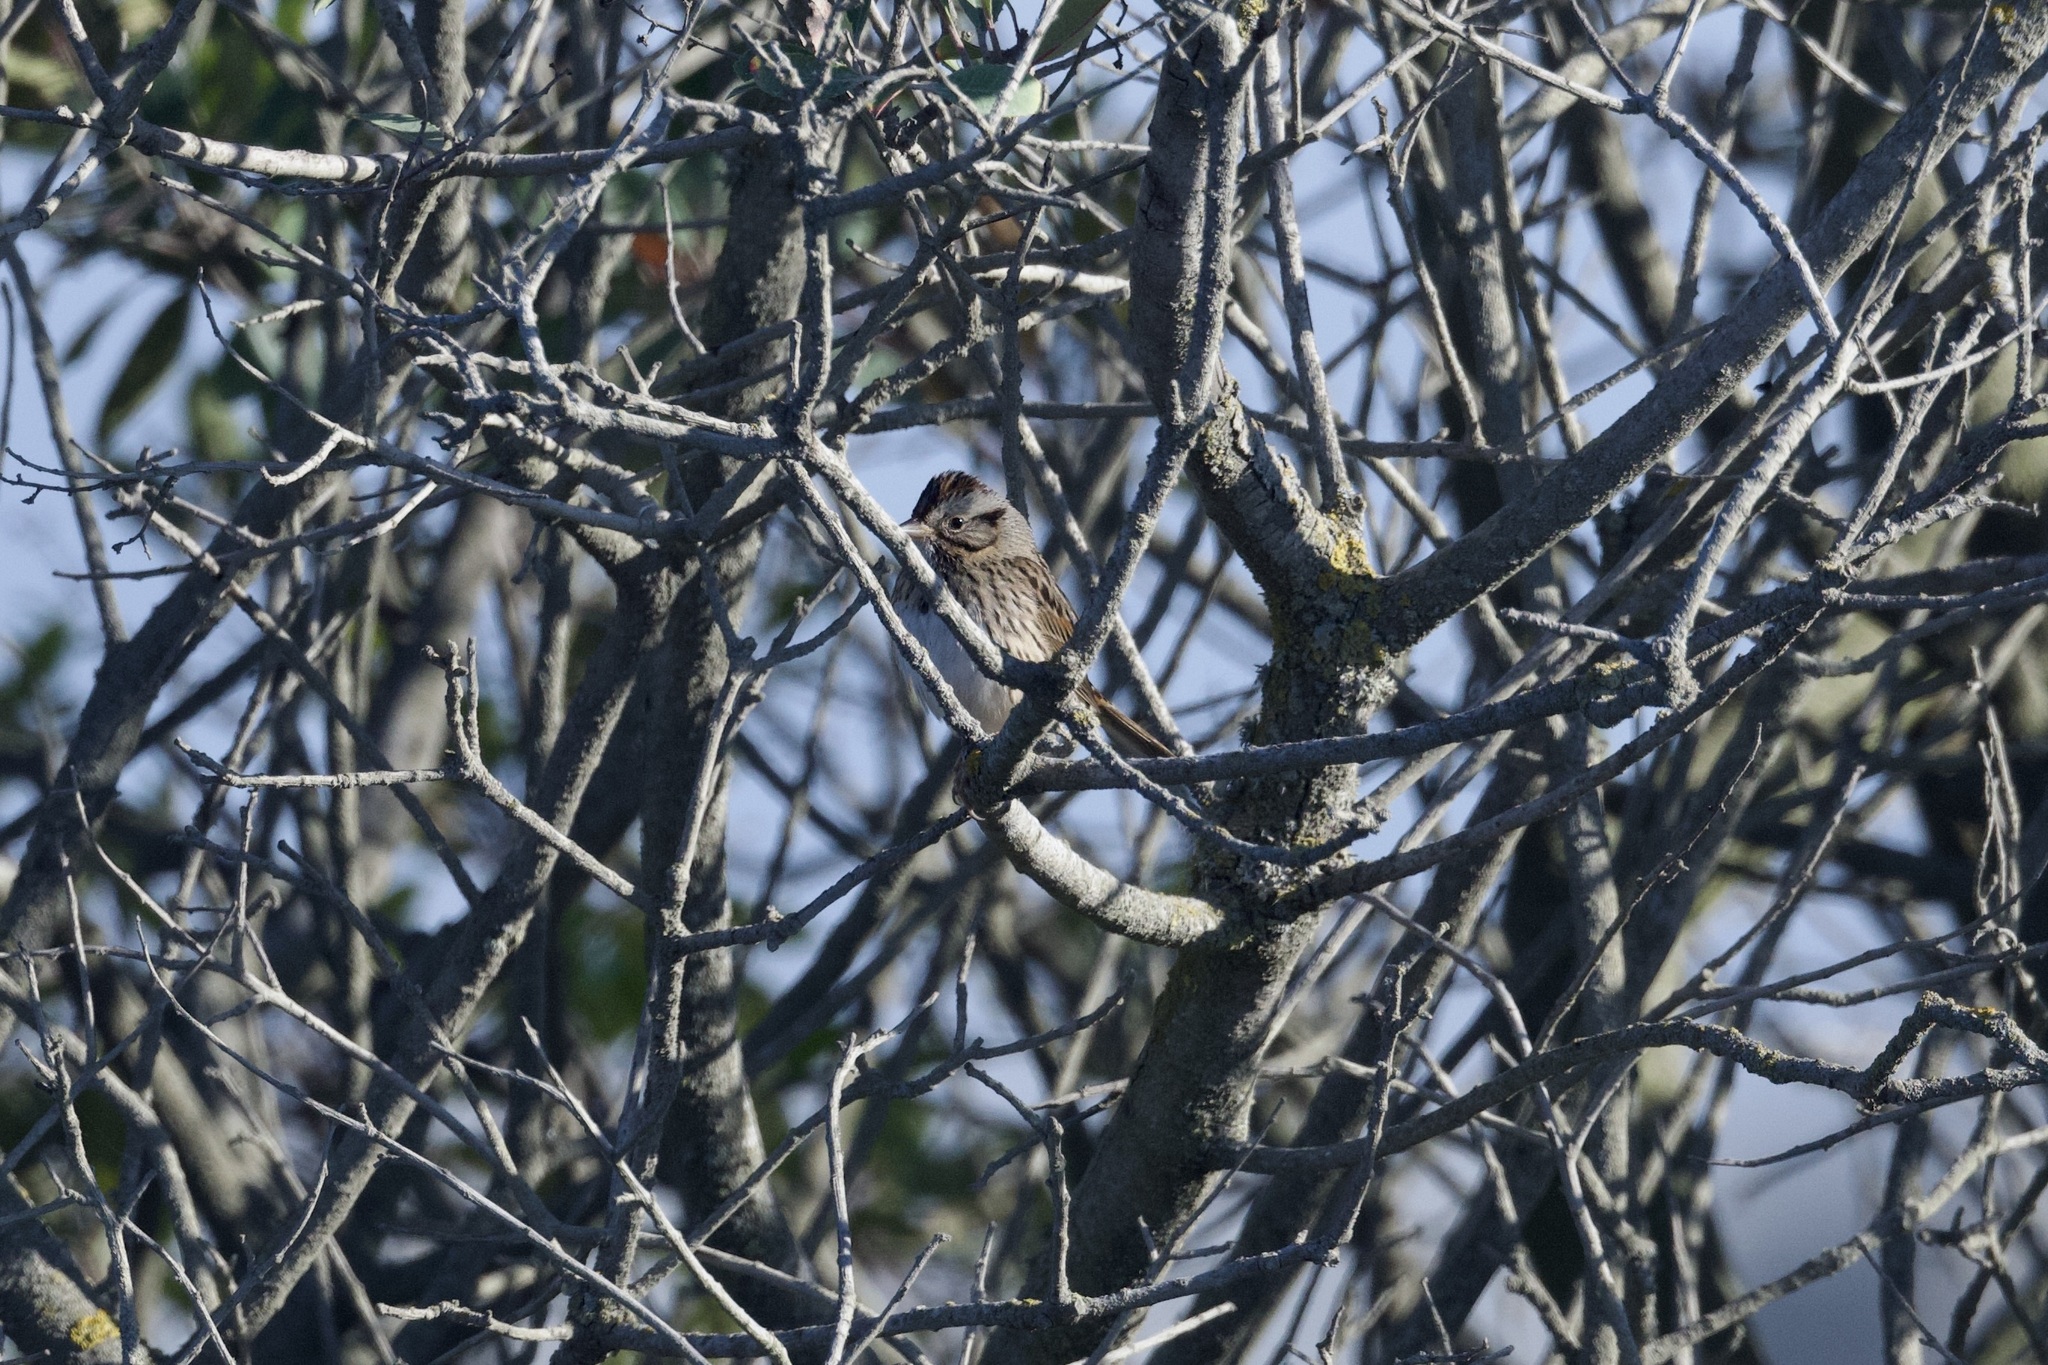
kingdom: Animalia
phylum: Chordata
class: Aves
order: Passeriformes
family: Passerellidae
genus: Melospiza
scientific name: Melospiza lincolnii
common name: Lincoln's sparrow
